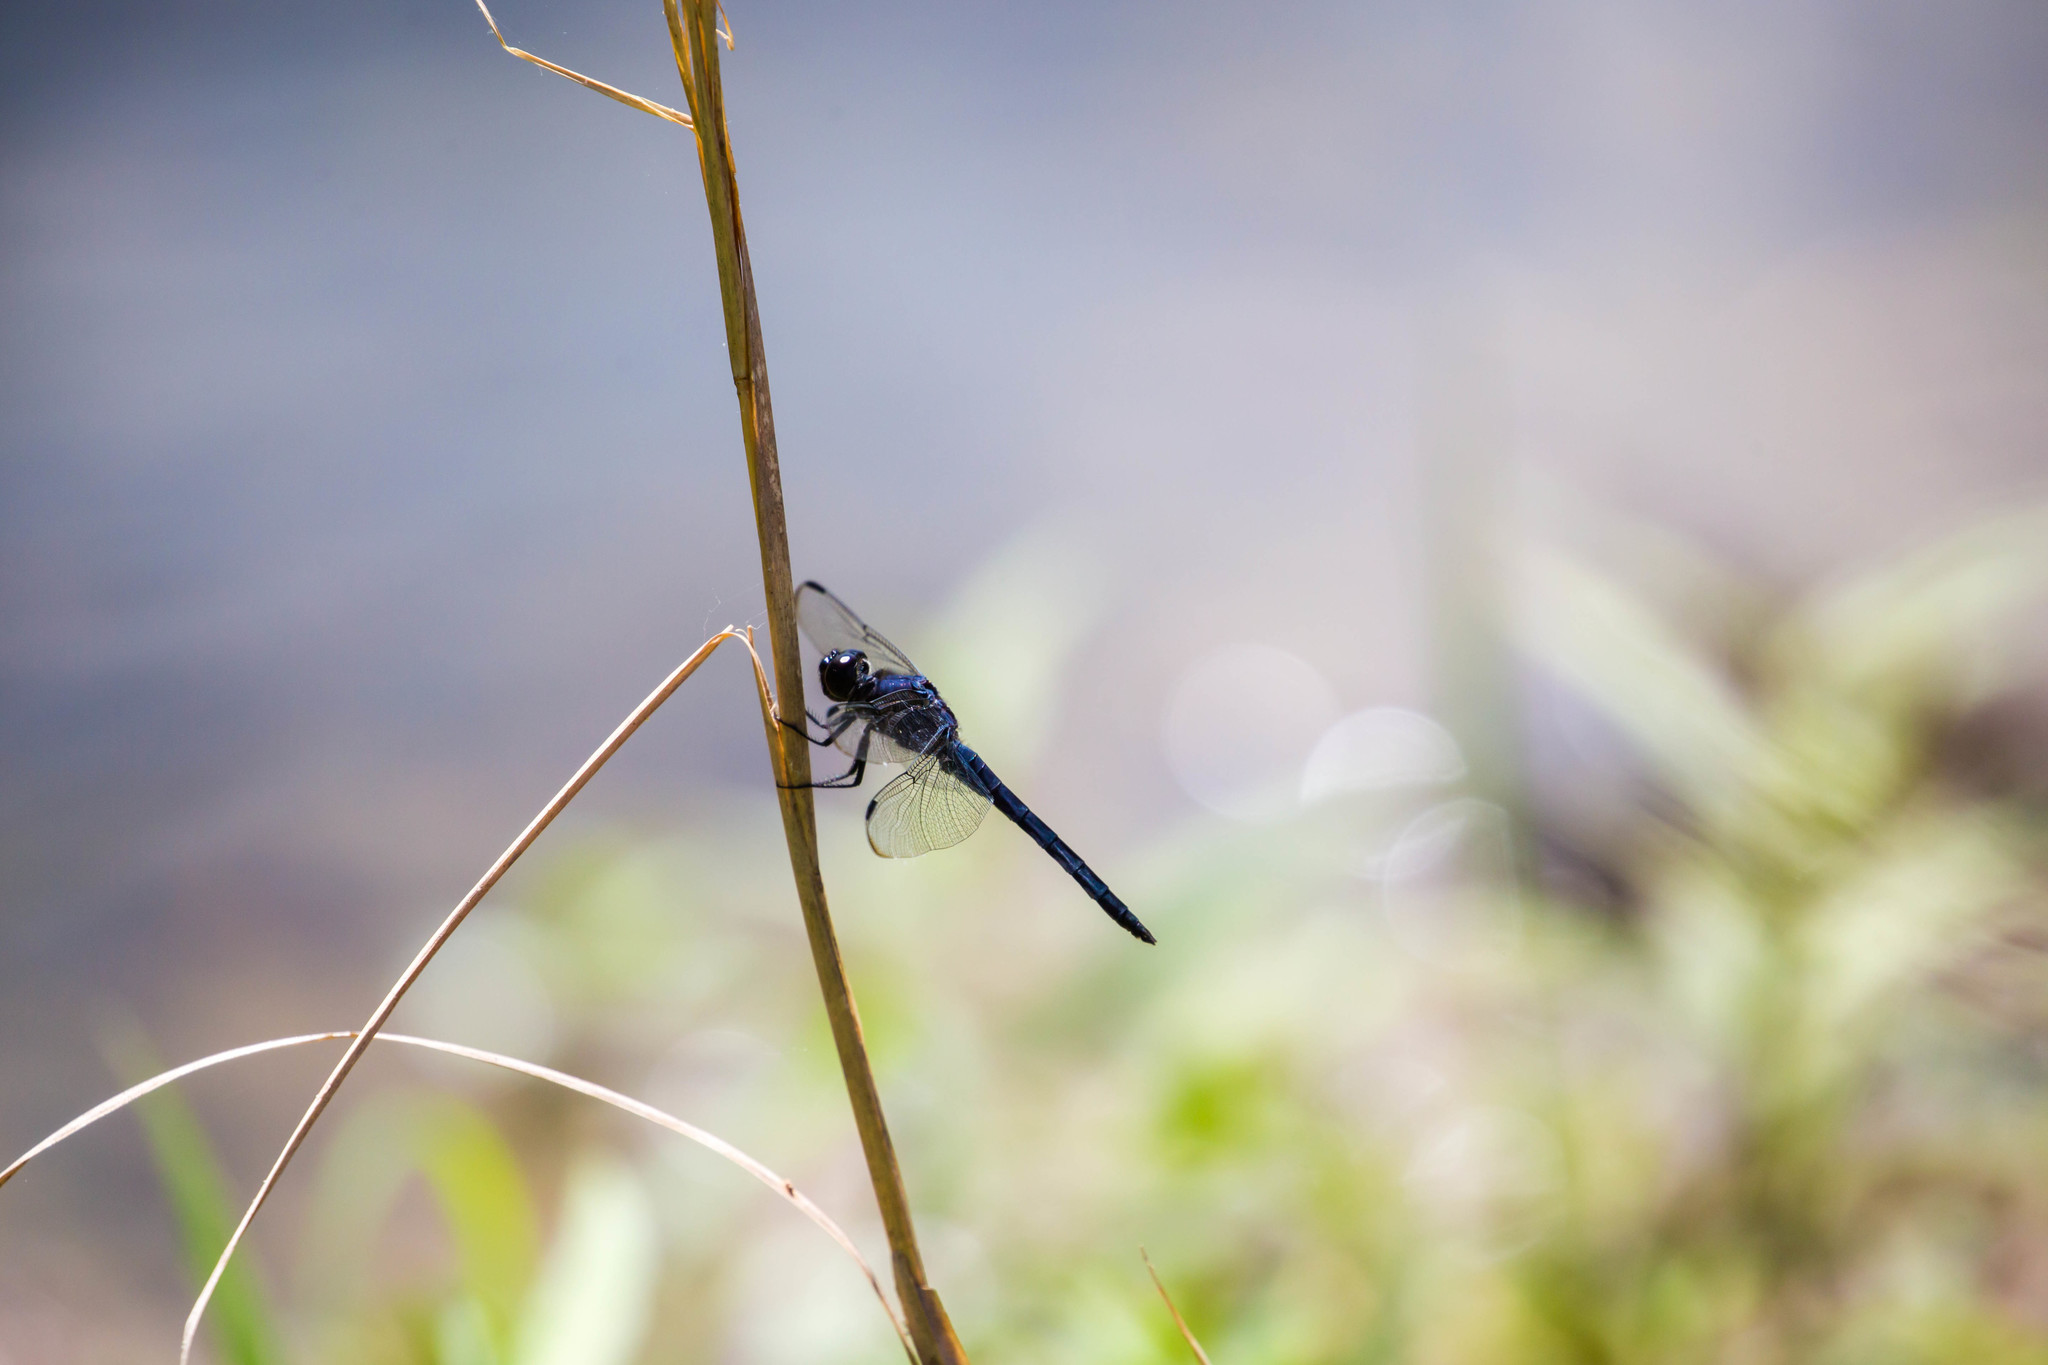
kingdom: Animalia
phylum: Arthropoda
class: Insecta
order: Odonata
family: Libellulidae
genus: Libellula
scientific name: Libellula incesta
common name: Slaty skimmer
